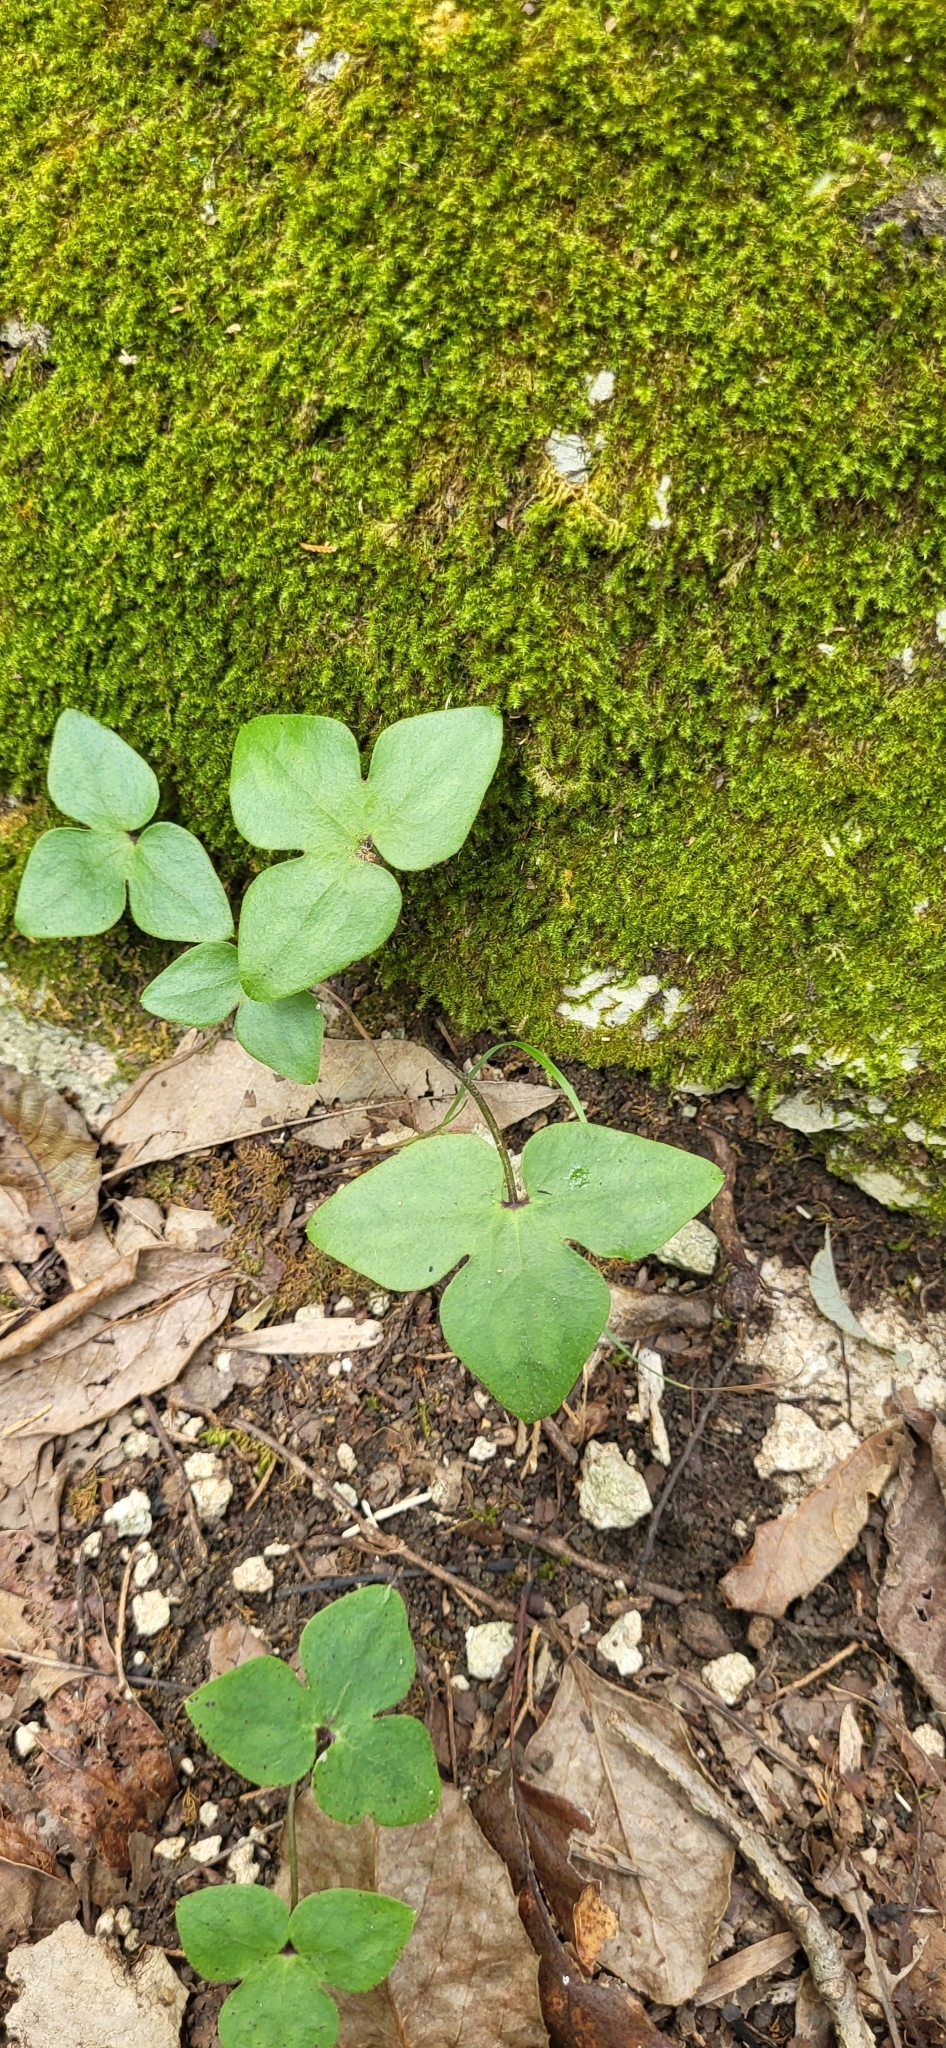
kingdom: Plantae
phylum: Tracheophyta
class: Magnoliopsida
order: Ranunculales
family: Ranunculaceae
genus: Hepatica
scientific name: Hepatica acutiloba
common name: Sharp-lobed hepatica
